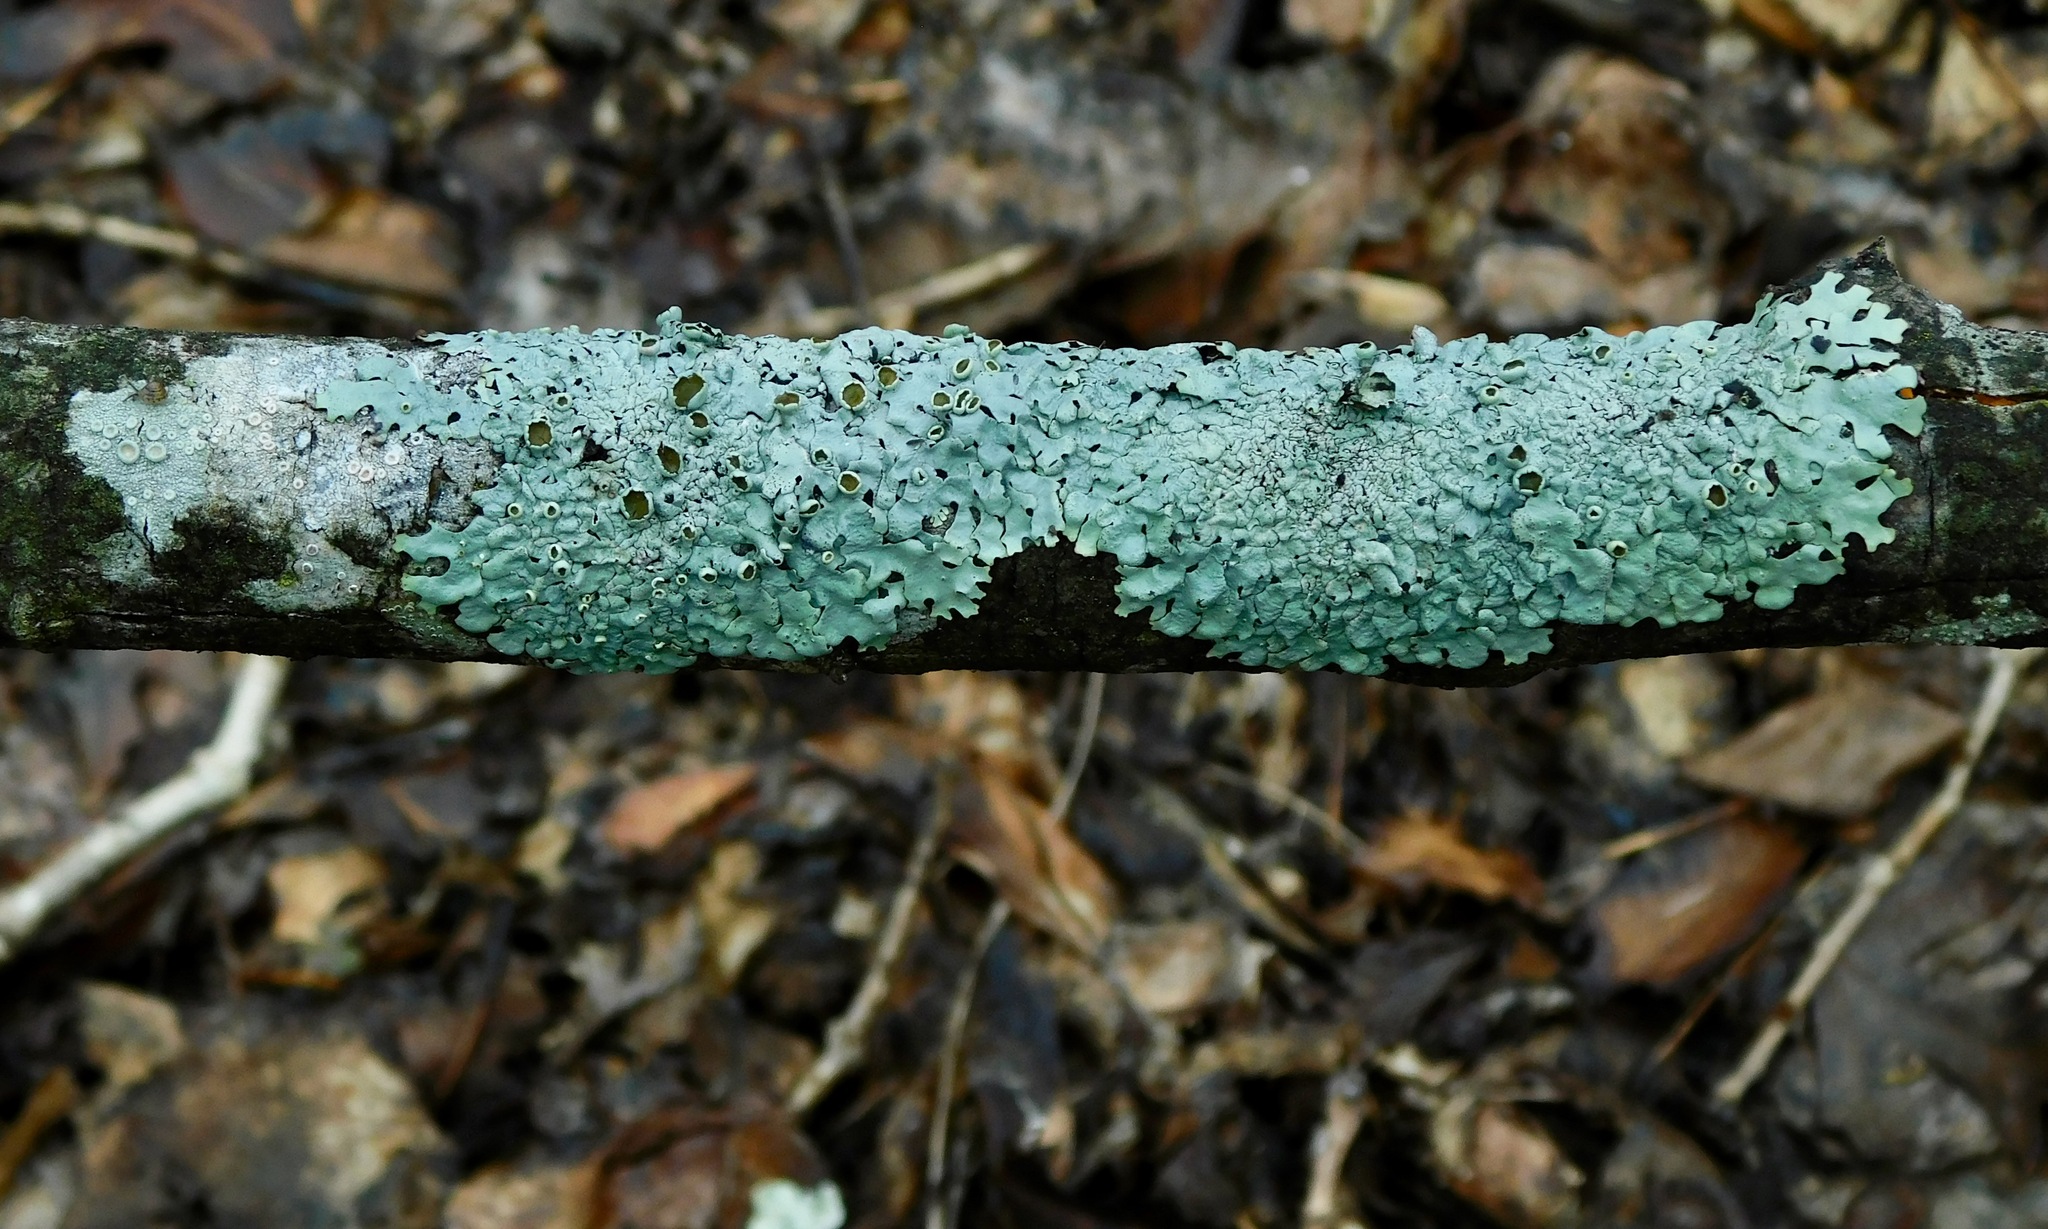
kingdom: Fungi
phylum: Ascomycota
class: Lecanoromycetes
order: Lecanorales
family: Parmeliaceae
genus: Myelochroa
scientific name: Myelochroa galbina
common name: Smooth axil-bristle lichen
